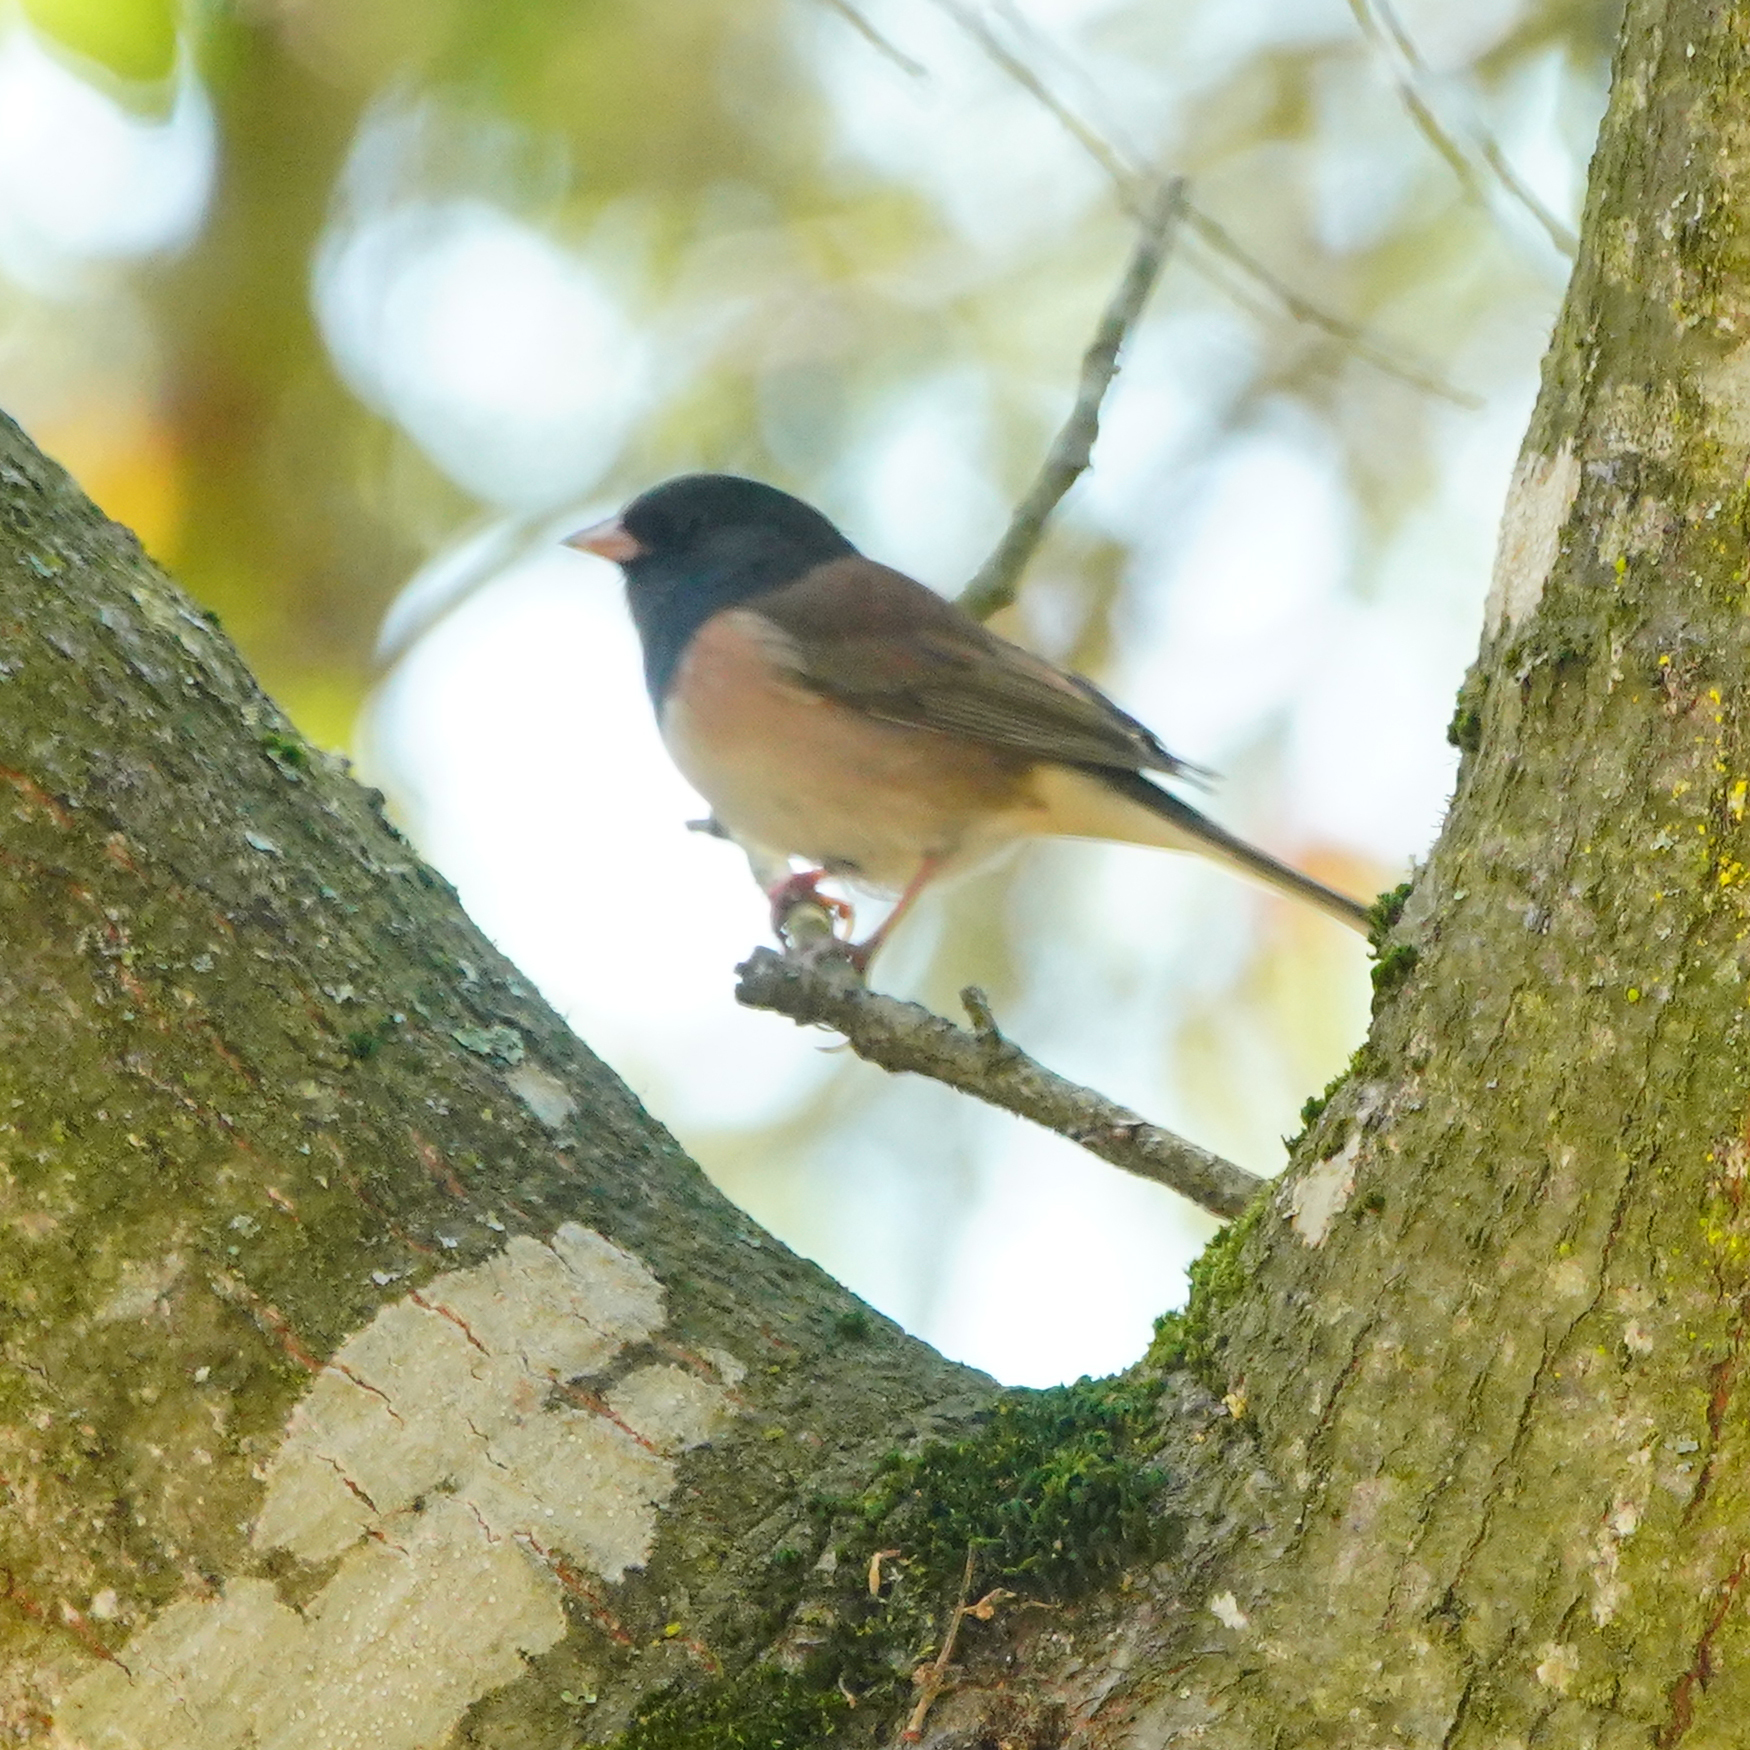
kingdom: Animalia
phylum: Chordata
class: Aves
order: Passeriformes
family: Passerellidae
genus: Junco
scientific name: Junco hyemalis
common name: Dark-eyed junco
